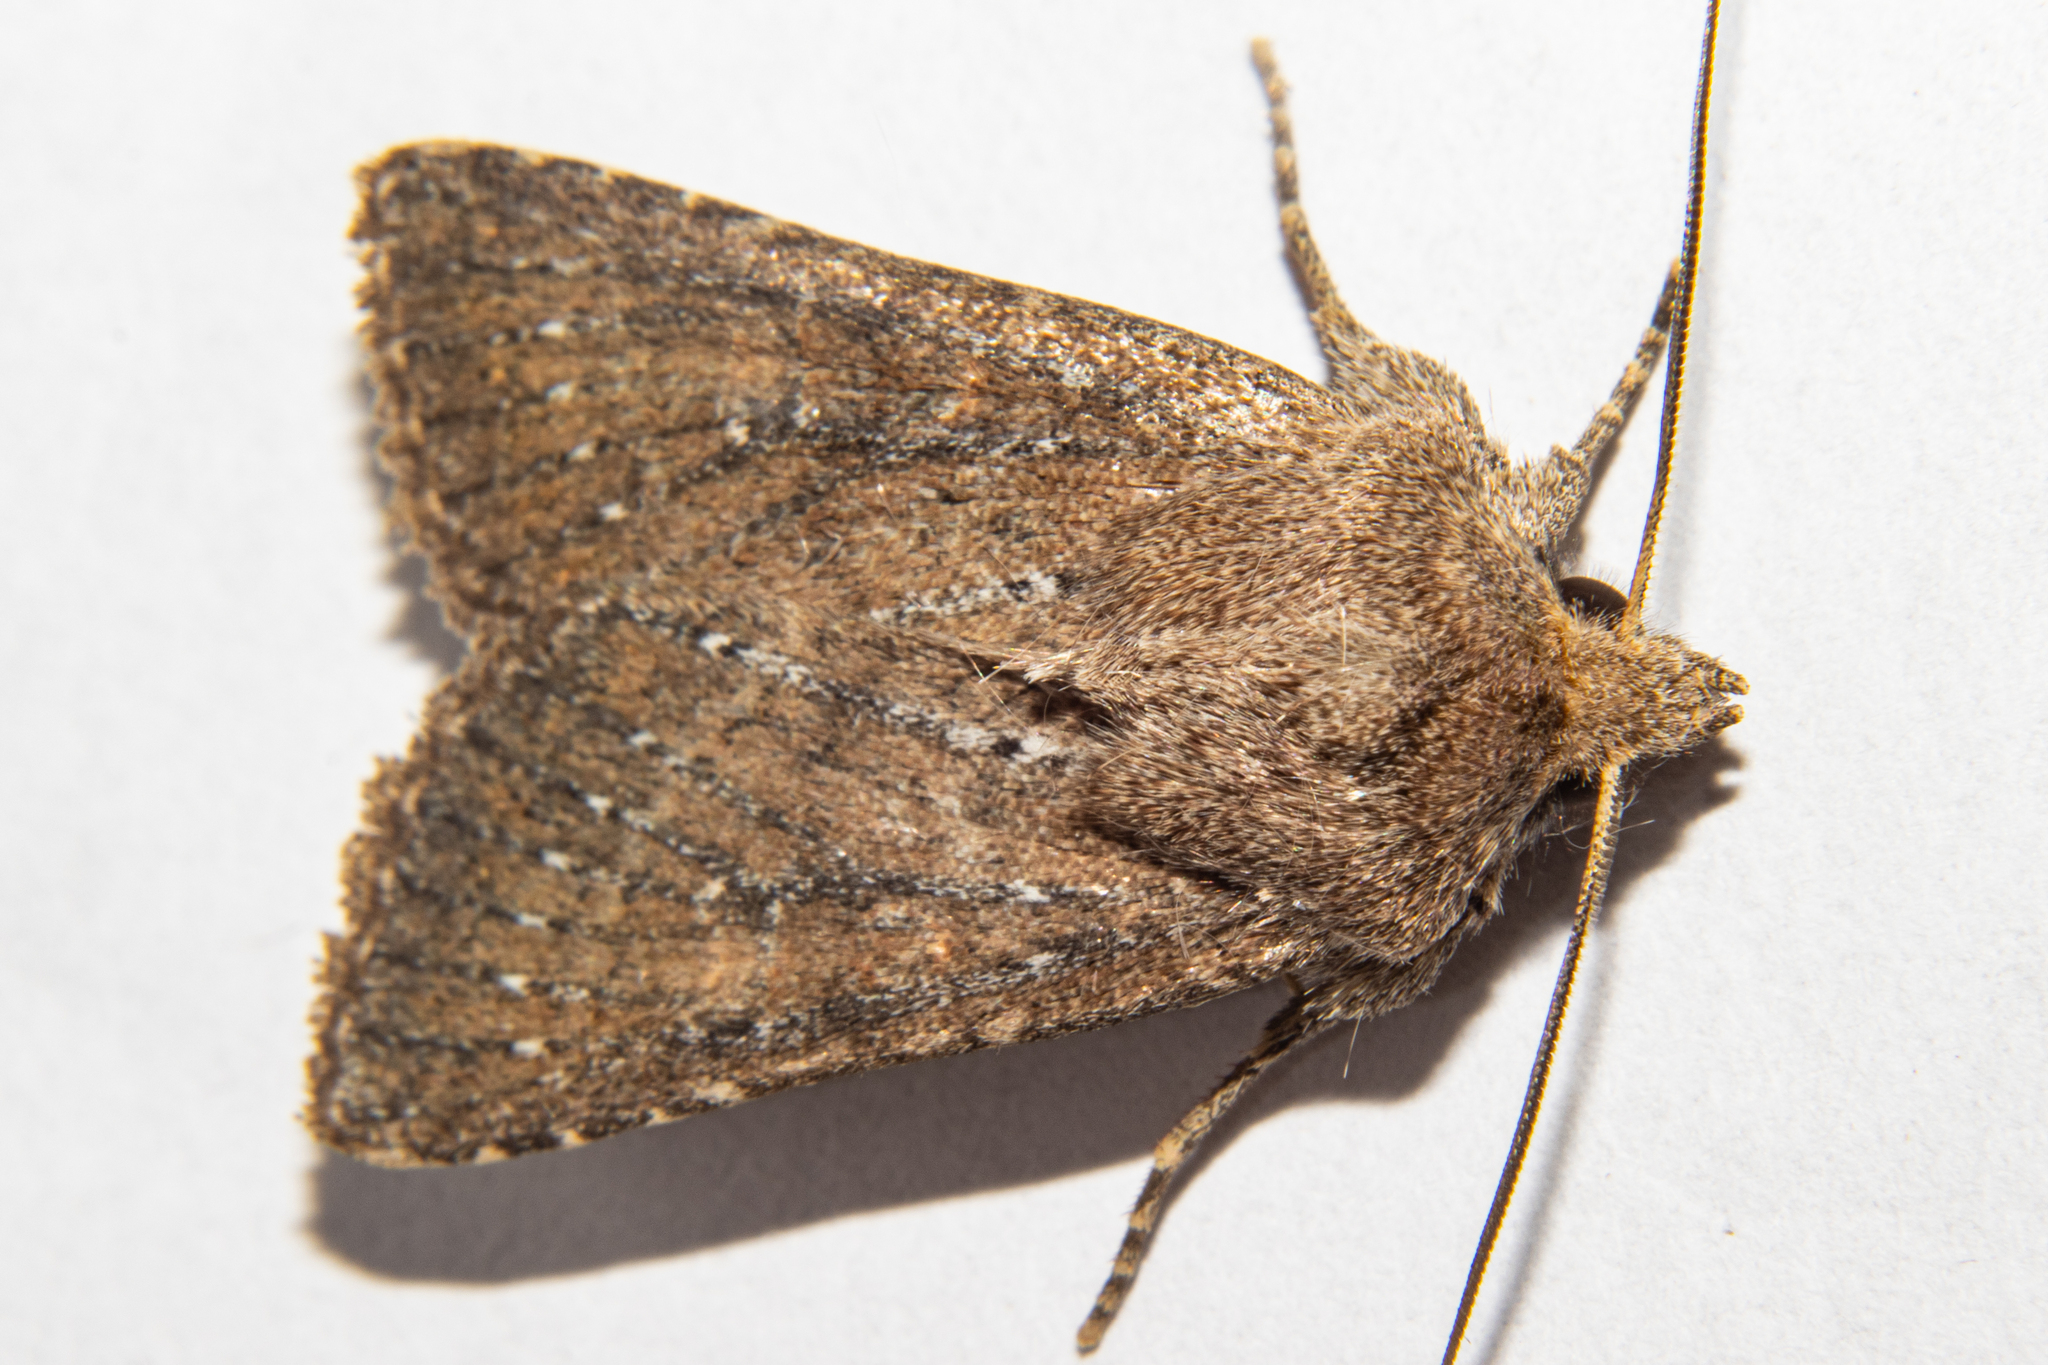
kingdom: Animalia
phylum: Arthropoda
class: Insecta
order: Lepidoptera
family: Noctuidae
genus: Physetica
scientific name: Physetica
